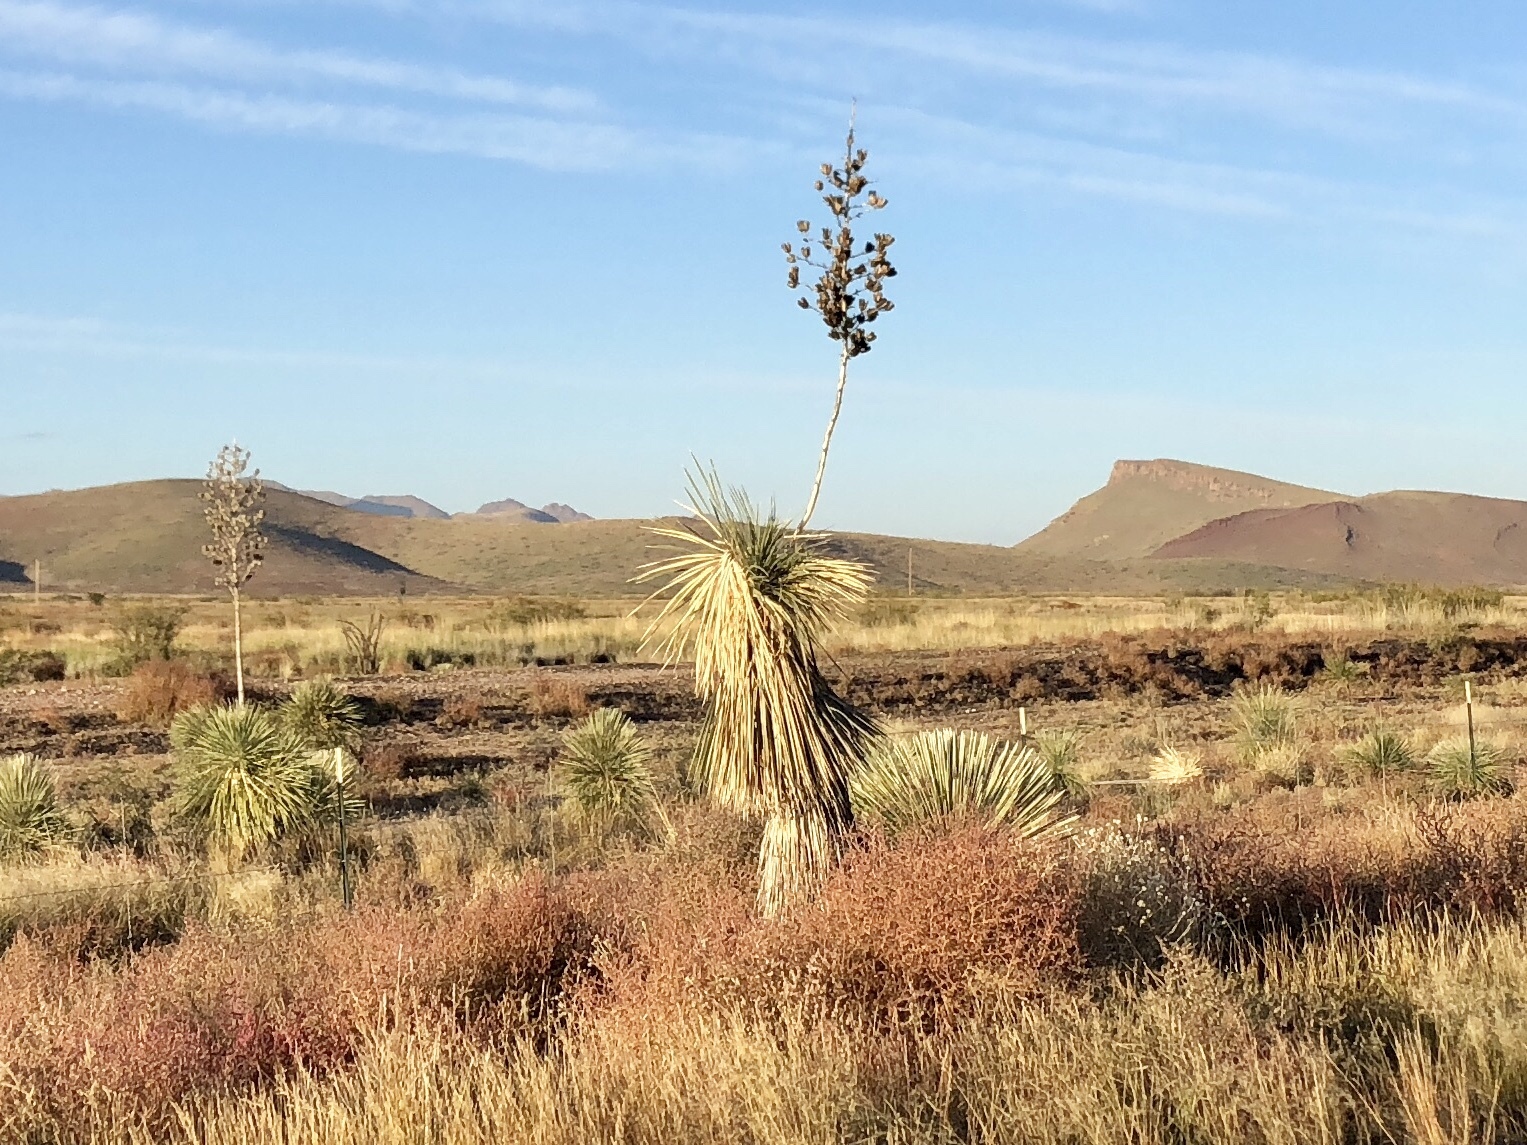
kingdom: Plantae
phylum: Tracheophyta
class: Liliopsida
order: Asparagales
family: Asparagaceae
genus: Yucca
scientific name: Yucca elata
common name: Palmella
